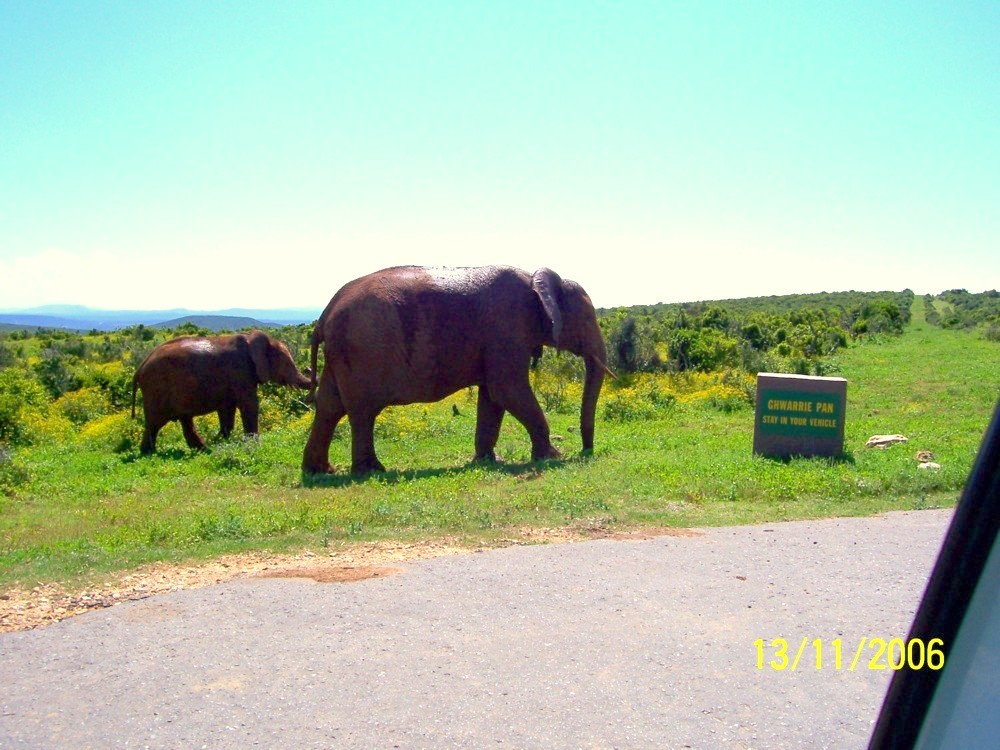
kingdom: Animalia
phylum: Chordata
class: Mammalia
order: Proboscidea
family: Elephantidae
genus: Loxodonta
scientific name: Loxodonta africana
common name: African elephant
